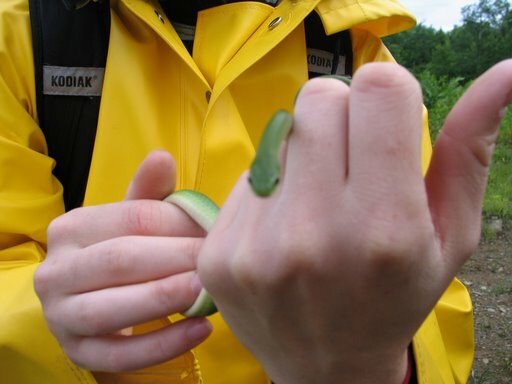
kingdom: Animalia
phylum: Chordata
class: Squamata
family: Colubridae
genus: Opheodrys
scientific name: Opheodrys vernalis
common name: Smooth green snake
